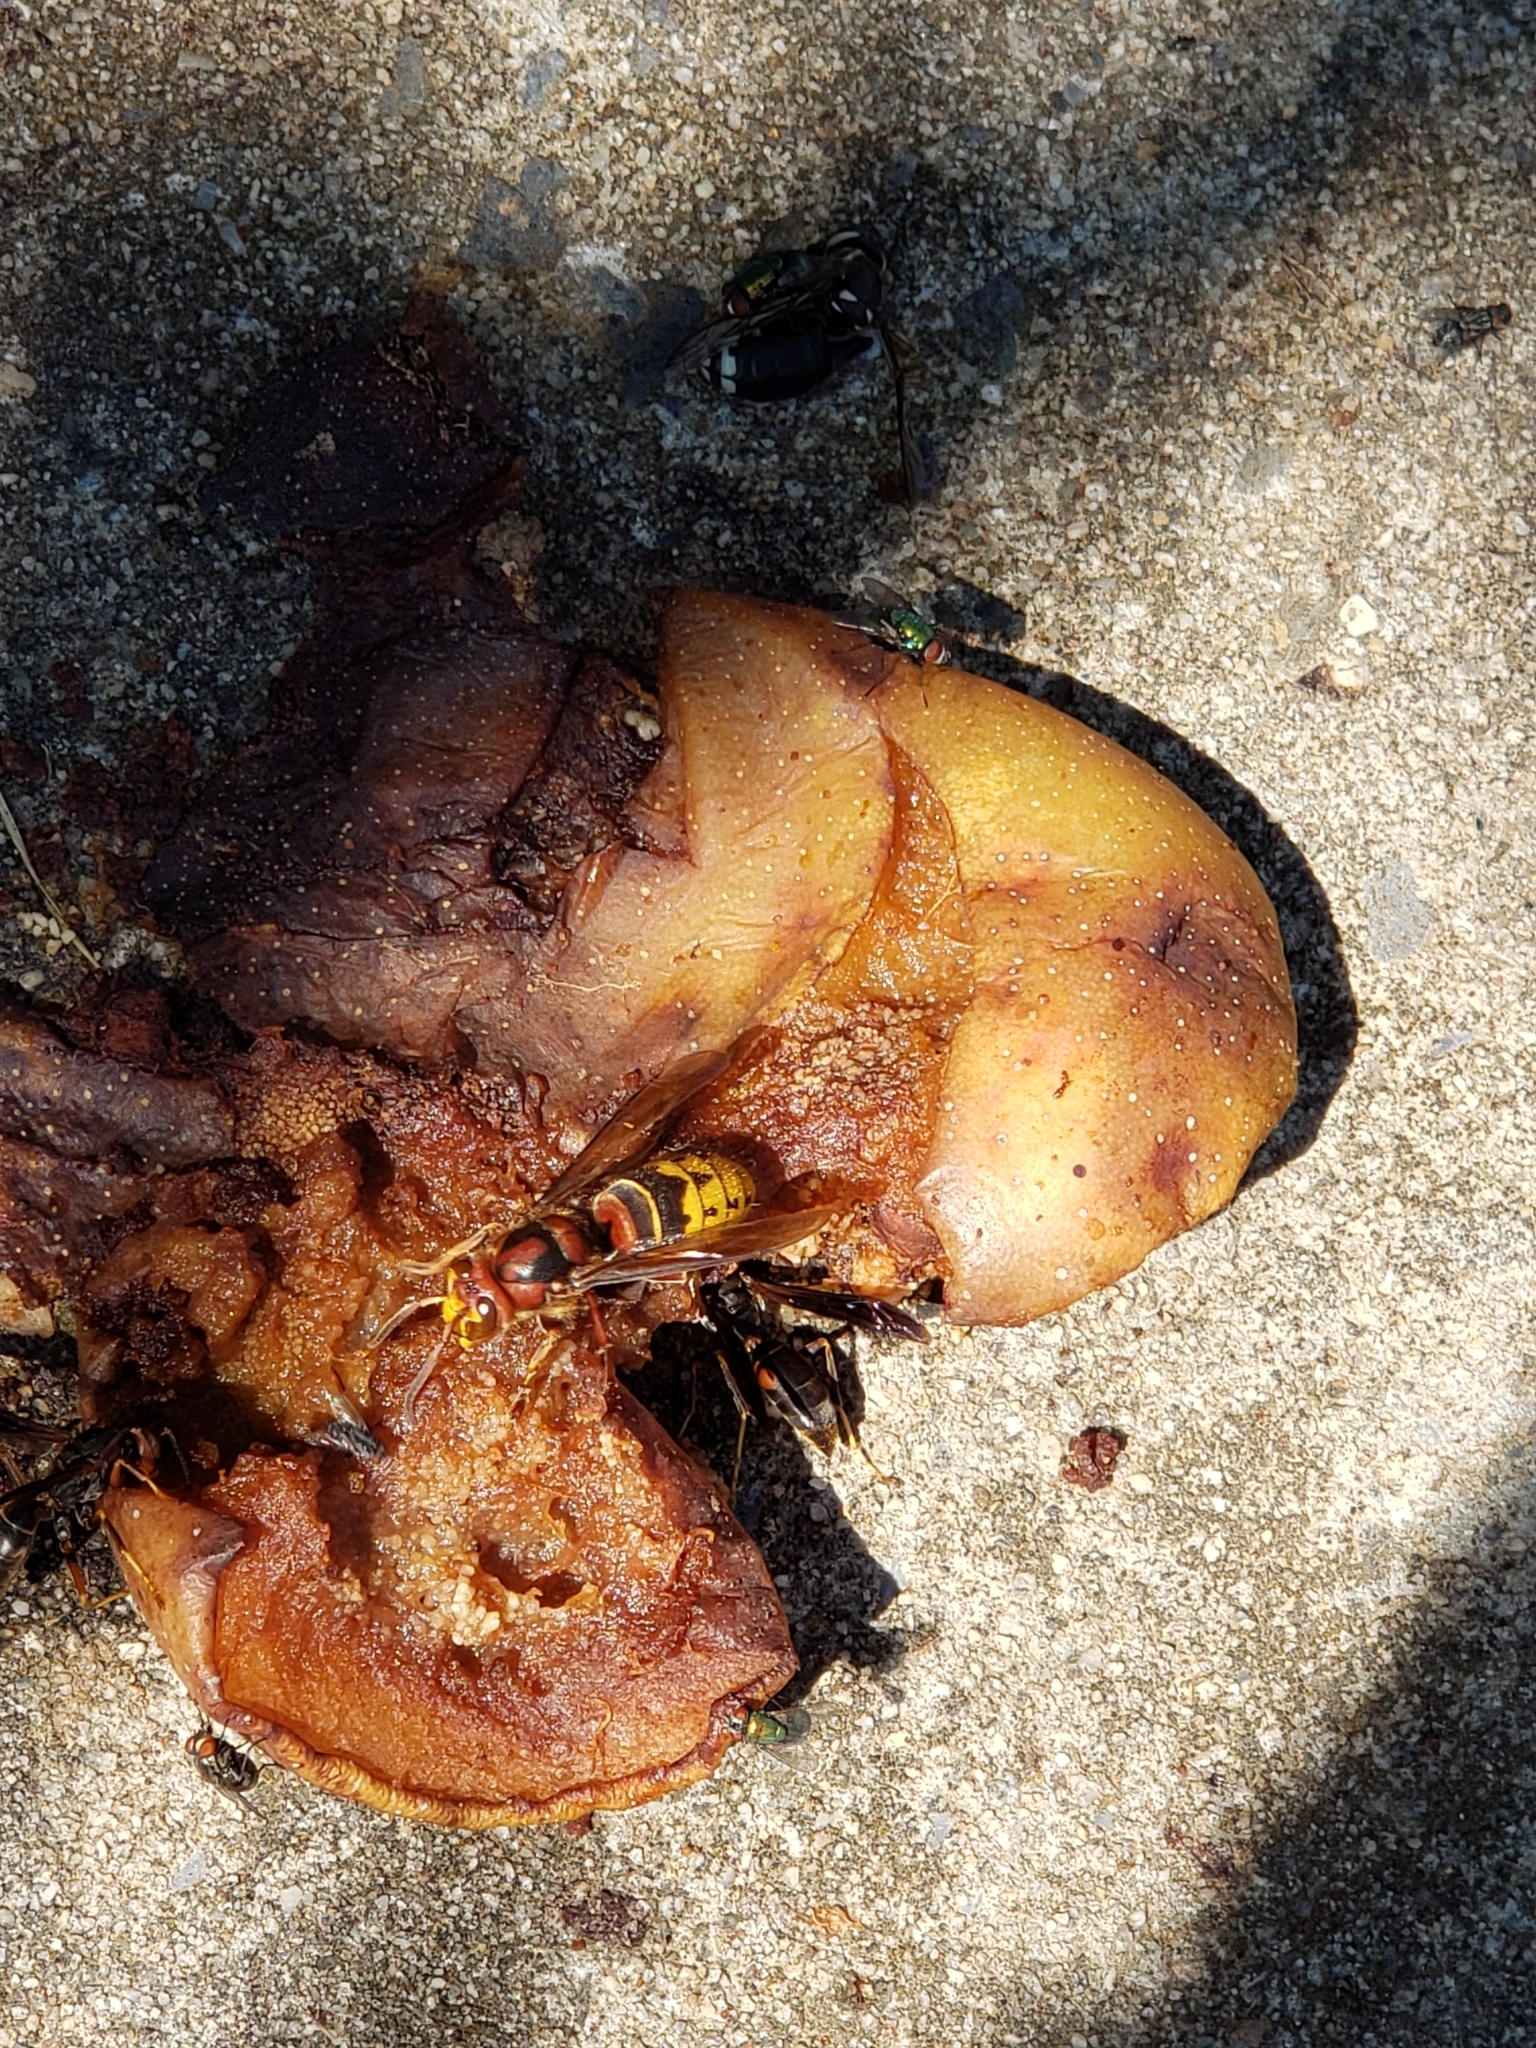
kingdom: Animalia
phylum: Arthropoda
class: Insecta
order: Hymenoptera
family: Vespidae
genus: Vespa
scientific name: Vespa crabro
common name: Hornet
